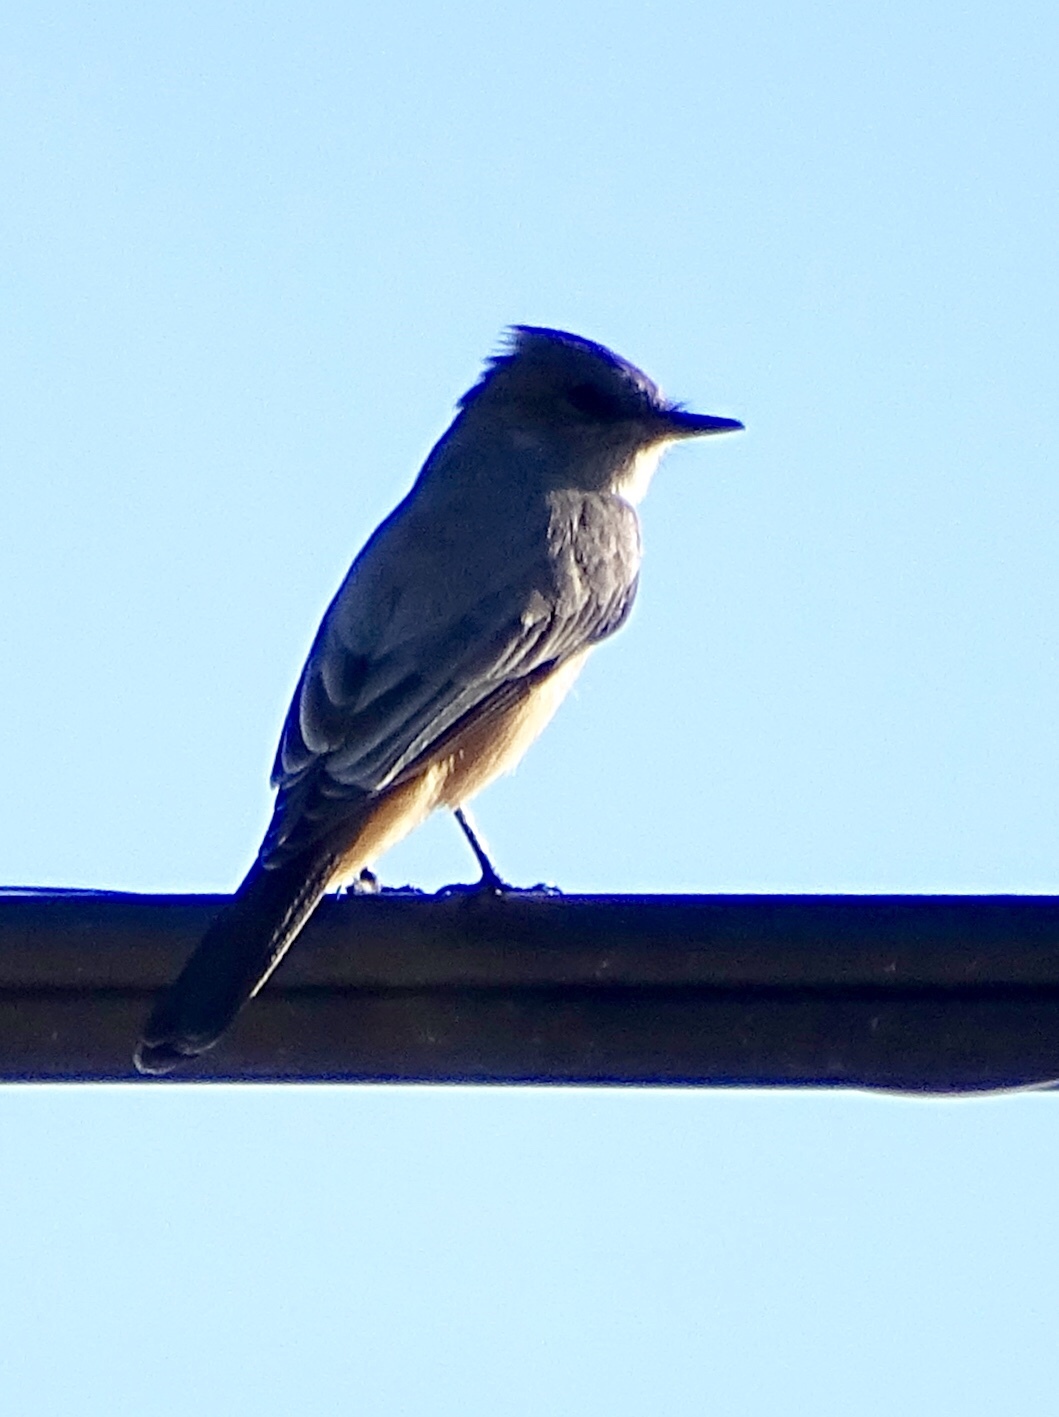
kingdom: Animalia
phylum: Chordata
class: Aves
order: Passeriformes
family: Tyrannidae
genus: Sayornis
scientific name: Sayornis saya
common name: Say's phoebe
